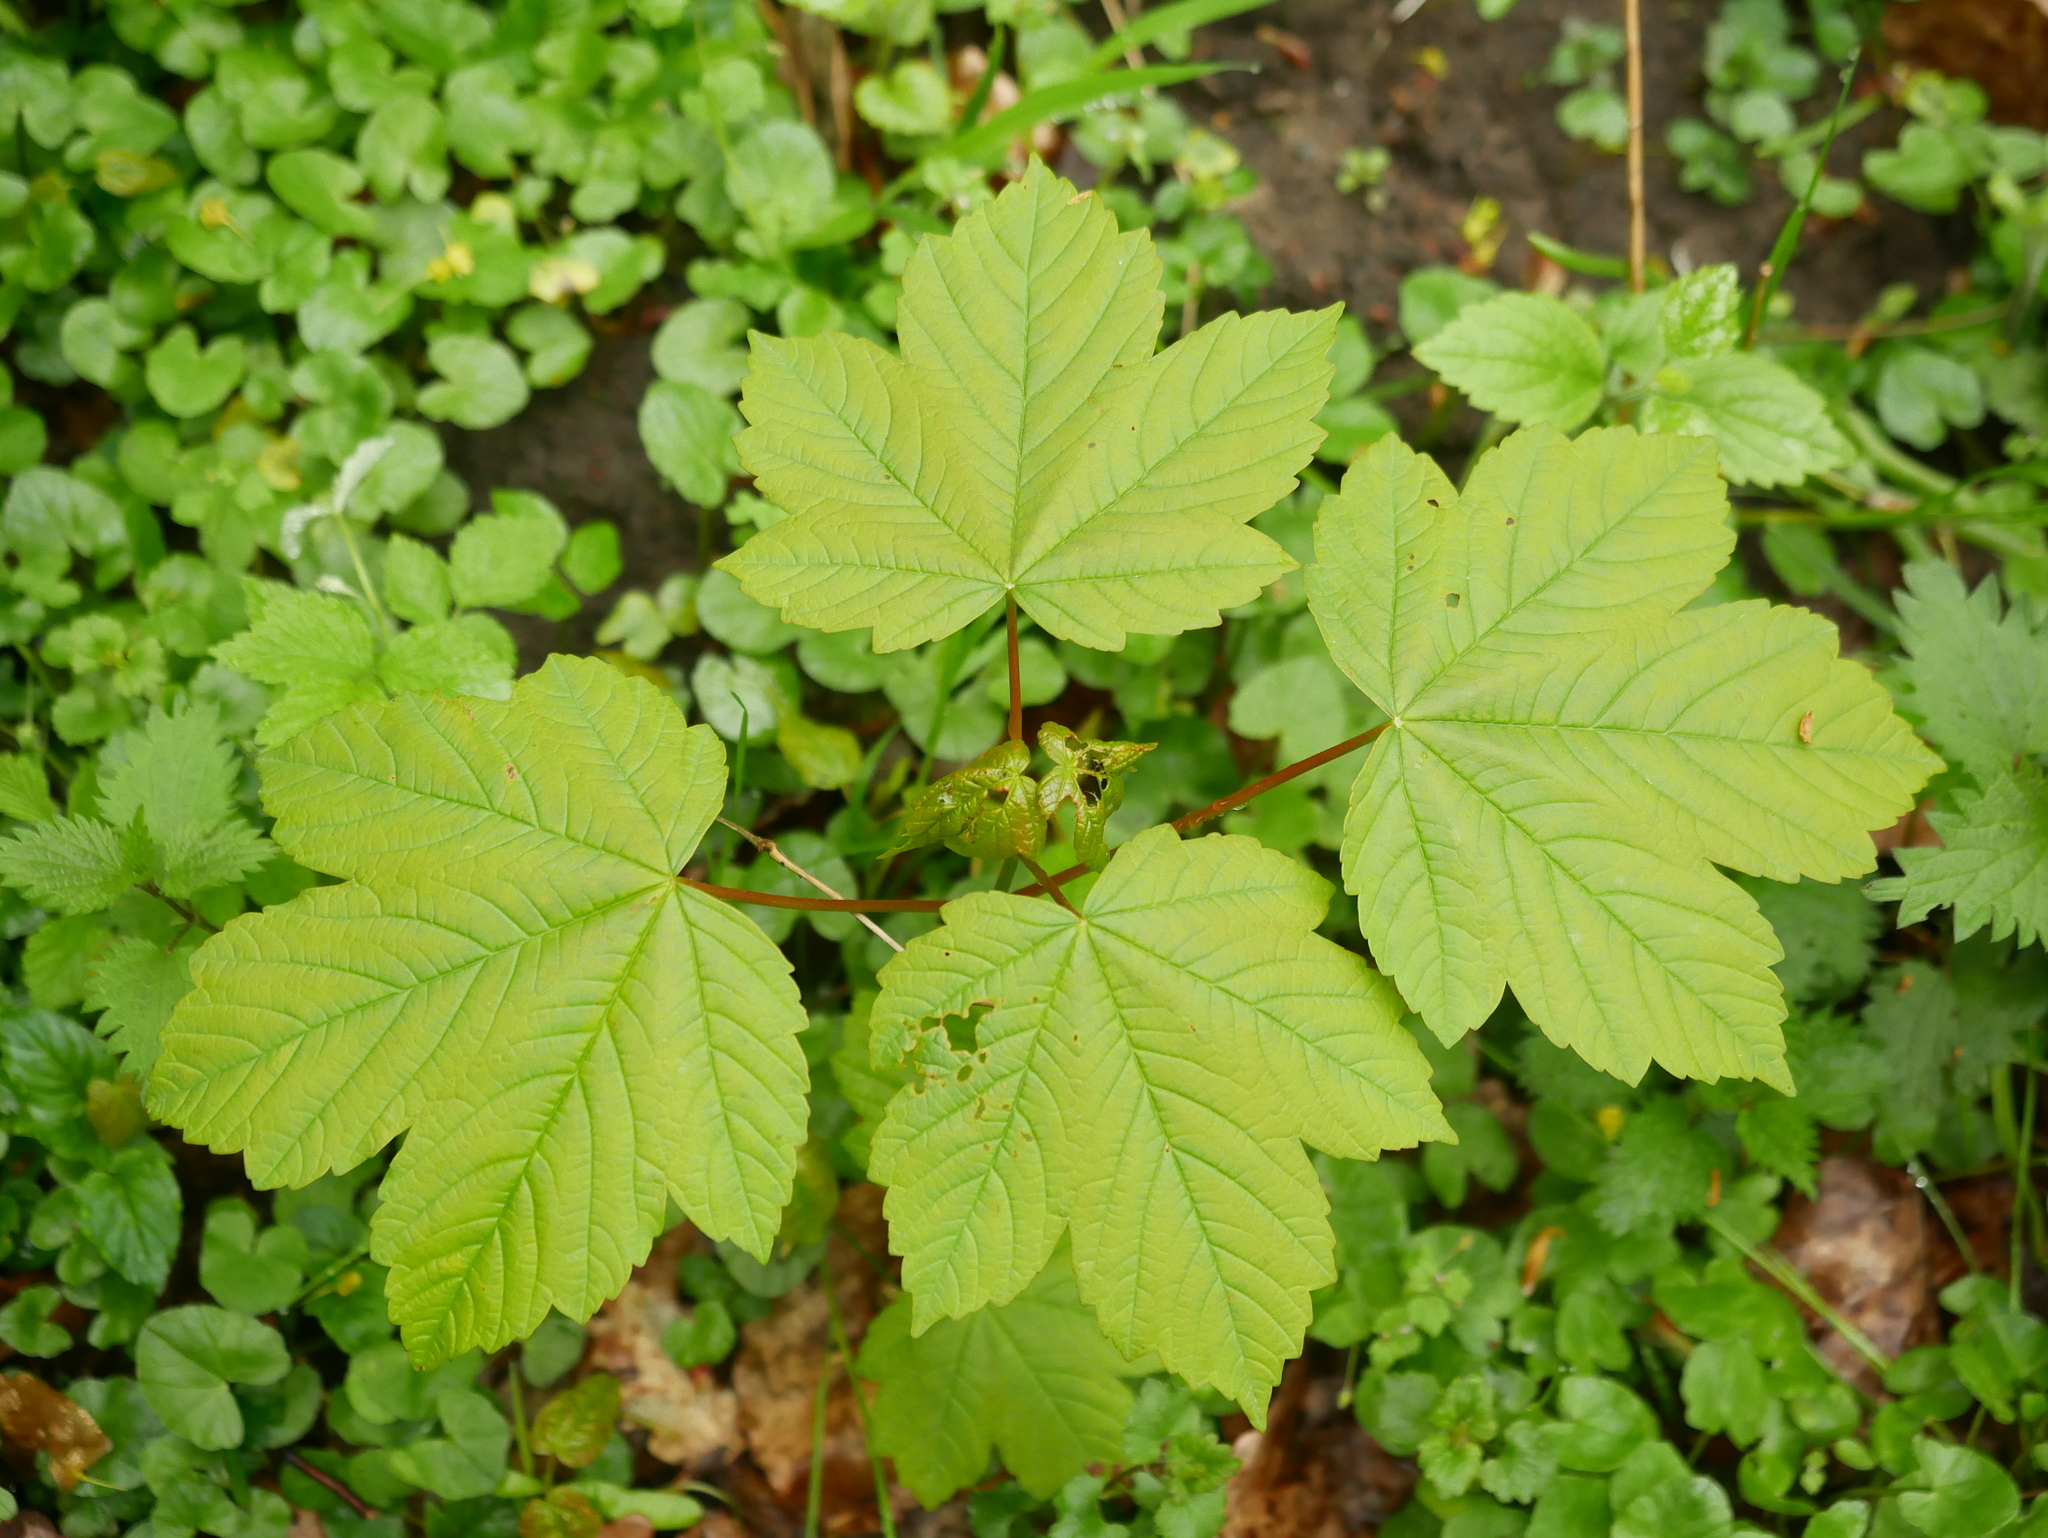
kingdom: Plantae
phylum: Tracheophyta
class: Magnoliopsida
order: Sapindales
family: Sapindaceae
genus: Acer
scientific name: Acer pseudoplatanus
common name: Sycamore
